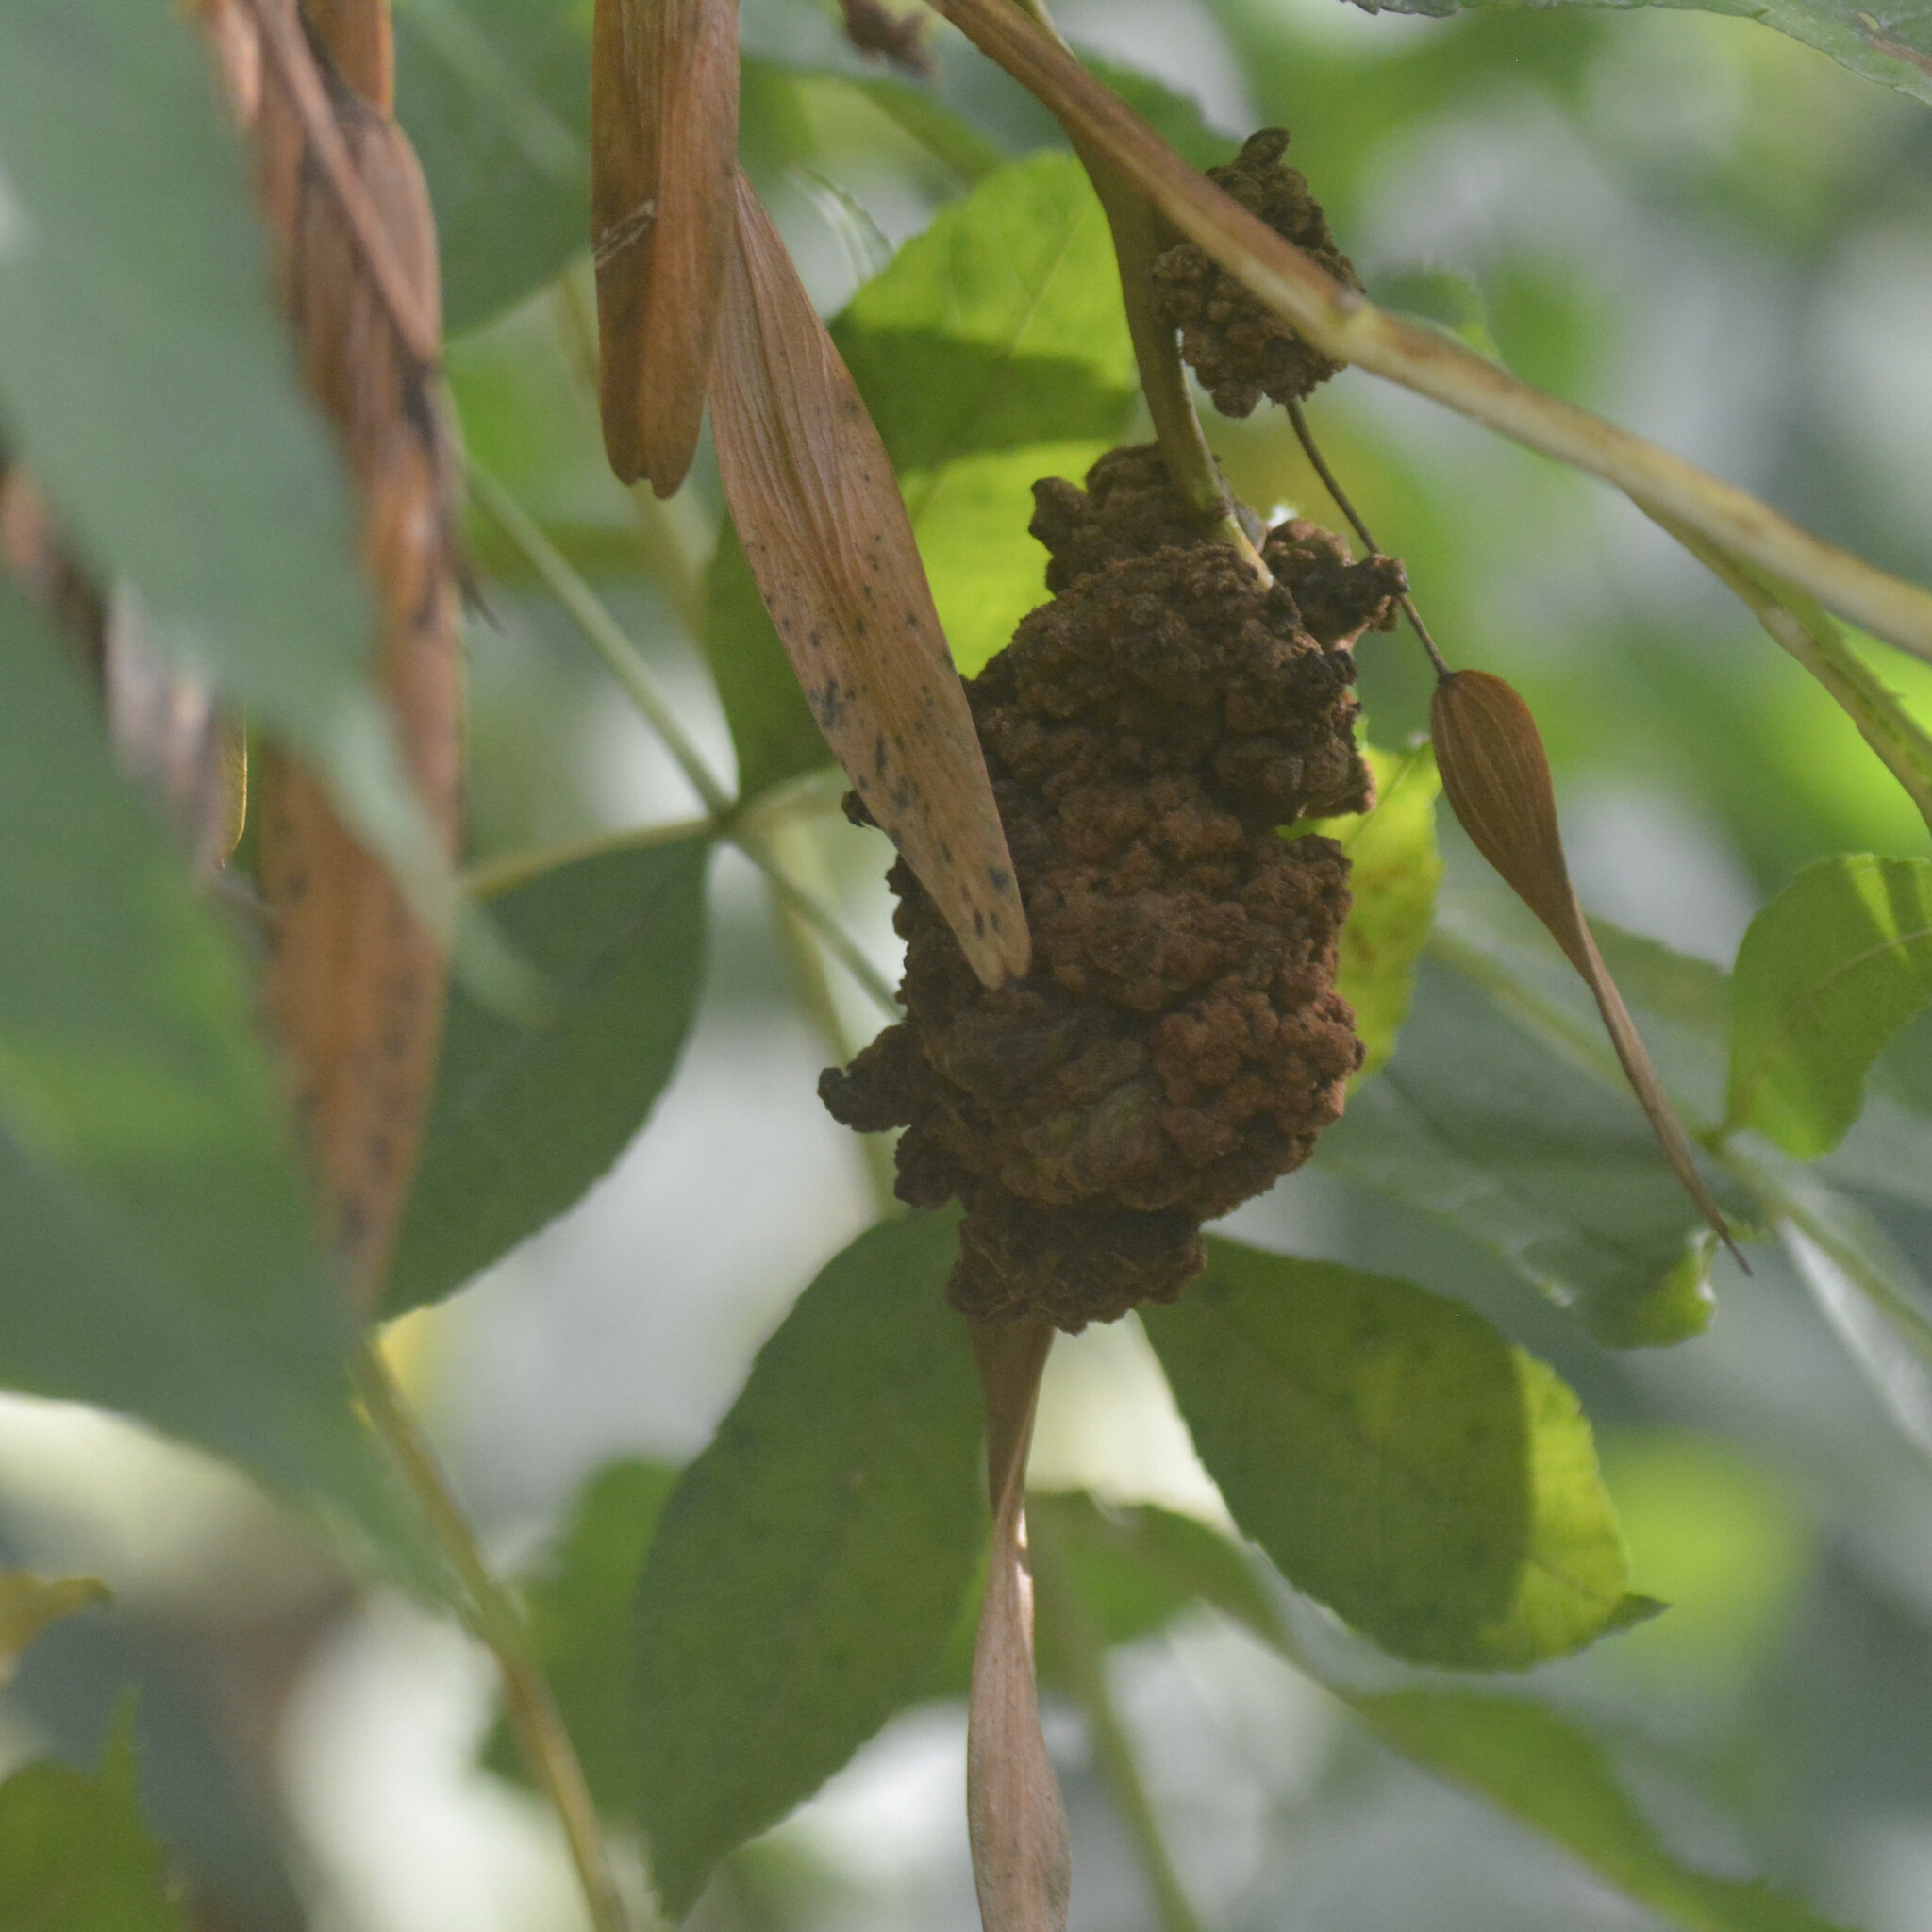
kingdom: Animalia
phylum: Arthropoda
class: Arachnida
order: Trombidiformes
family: Eriophyidae
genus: Aceria
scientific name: Aceria fraxinivora
